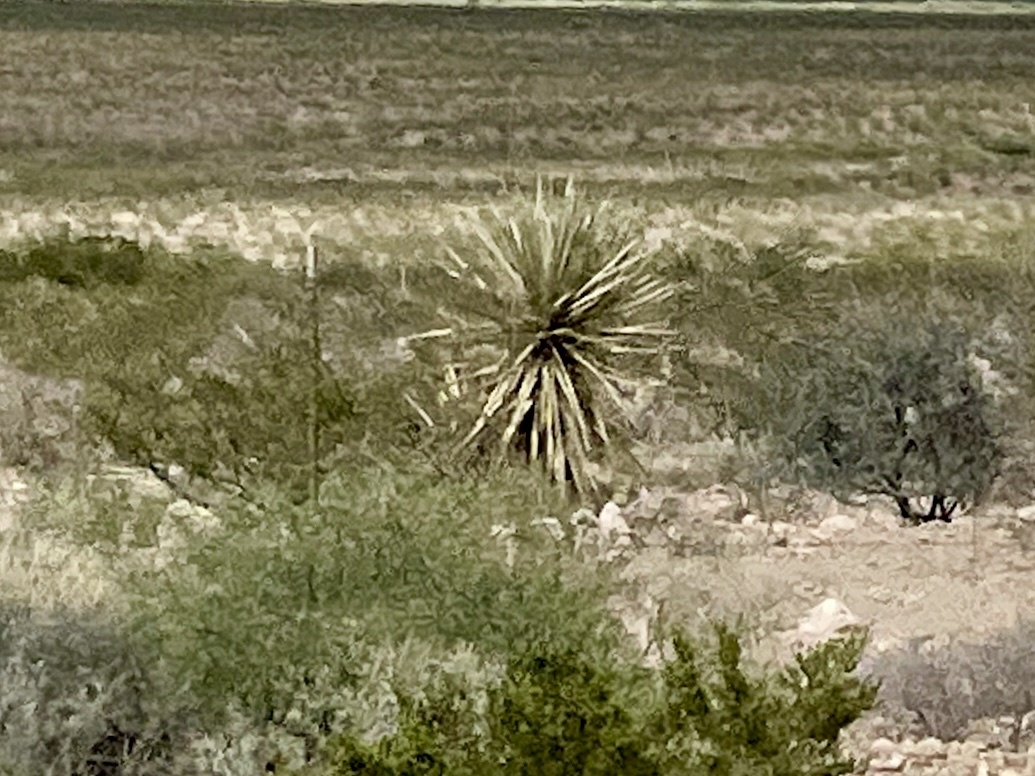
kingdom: Plantae
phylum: Tracheophyta
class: Liliopsida
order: Asparagales
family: Asparagaceae
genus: Yucca
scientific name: Yucca treculiana
